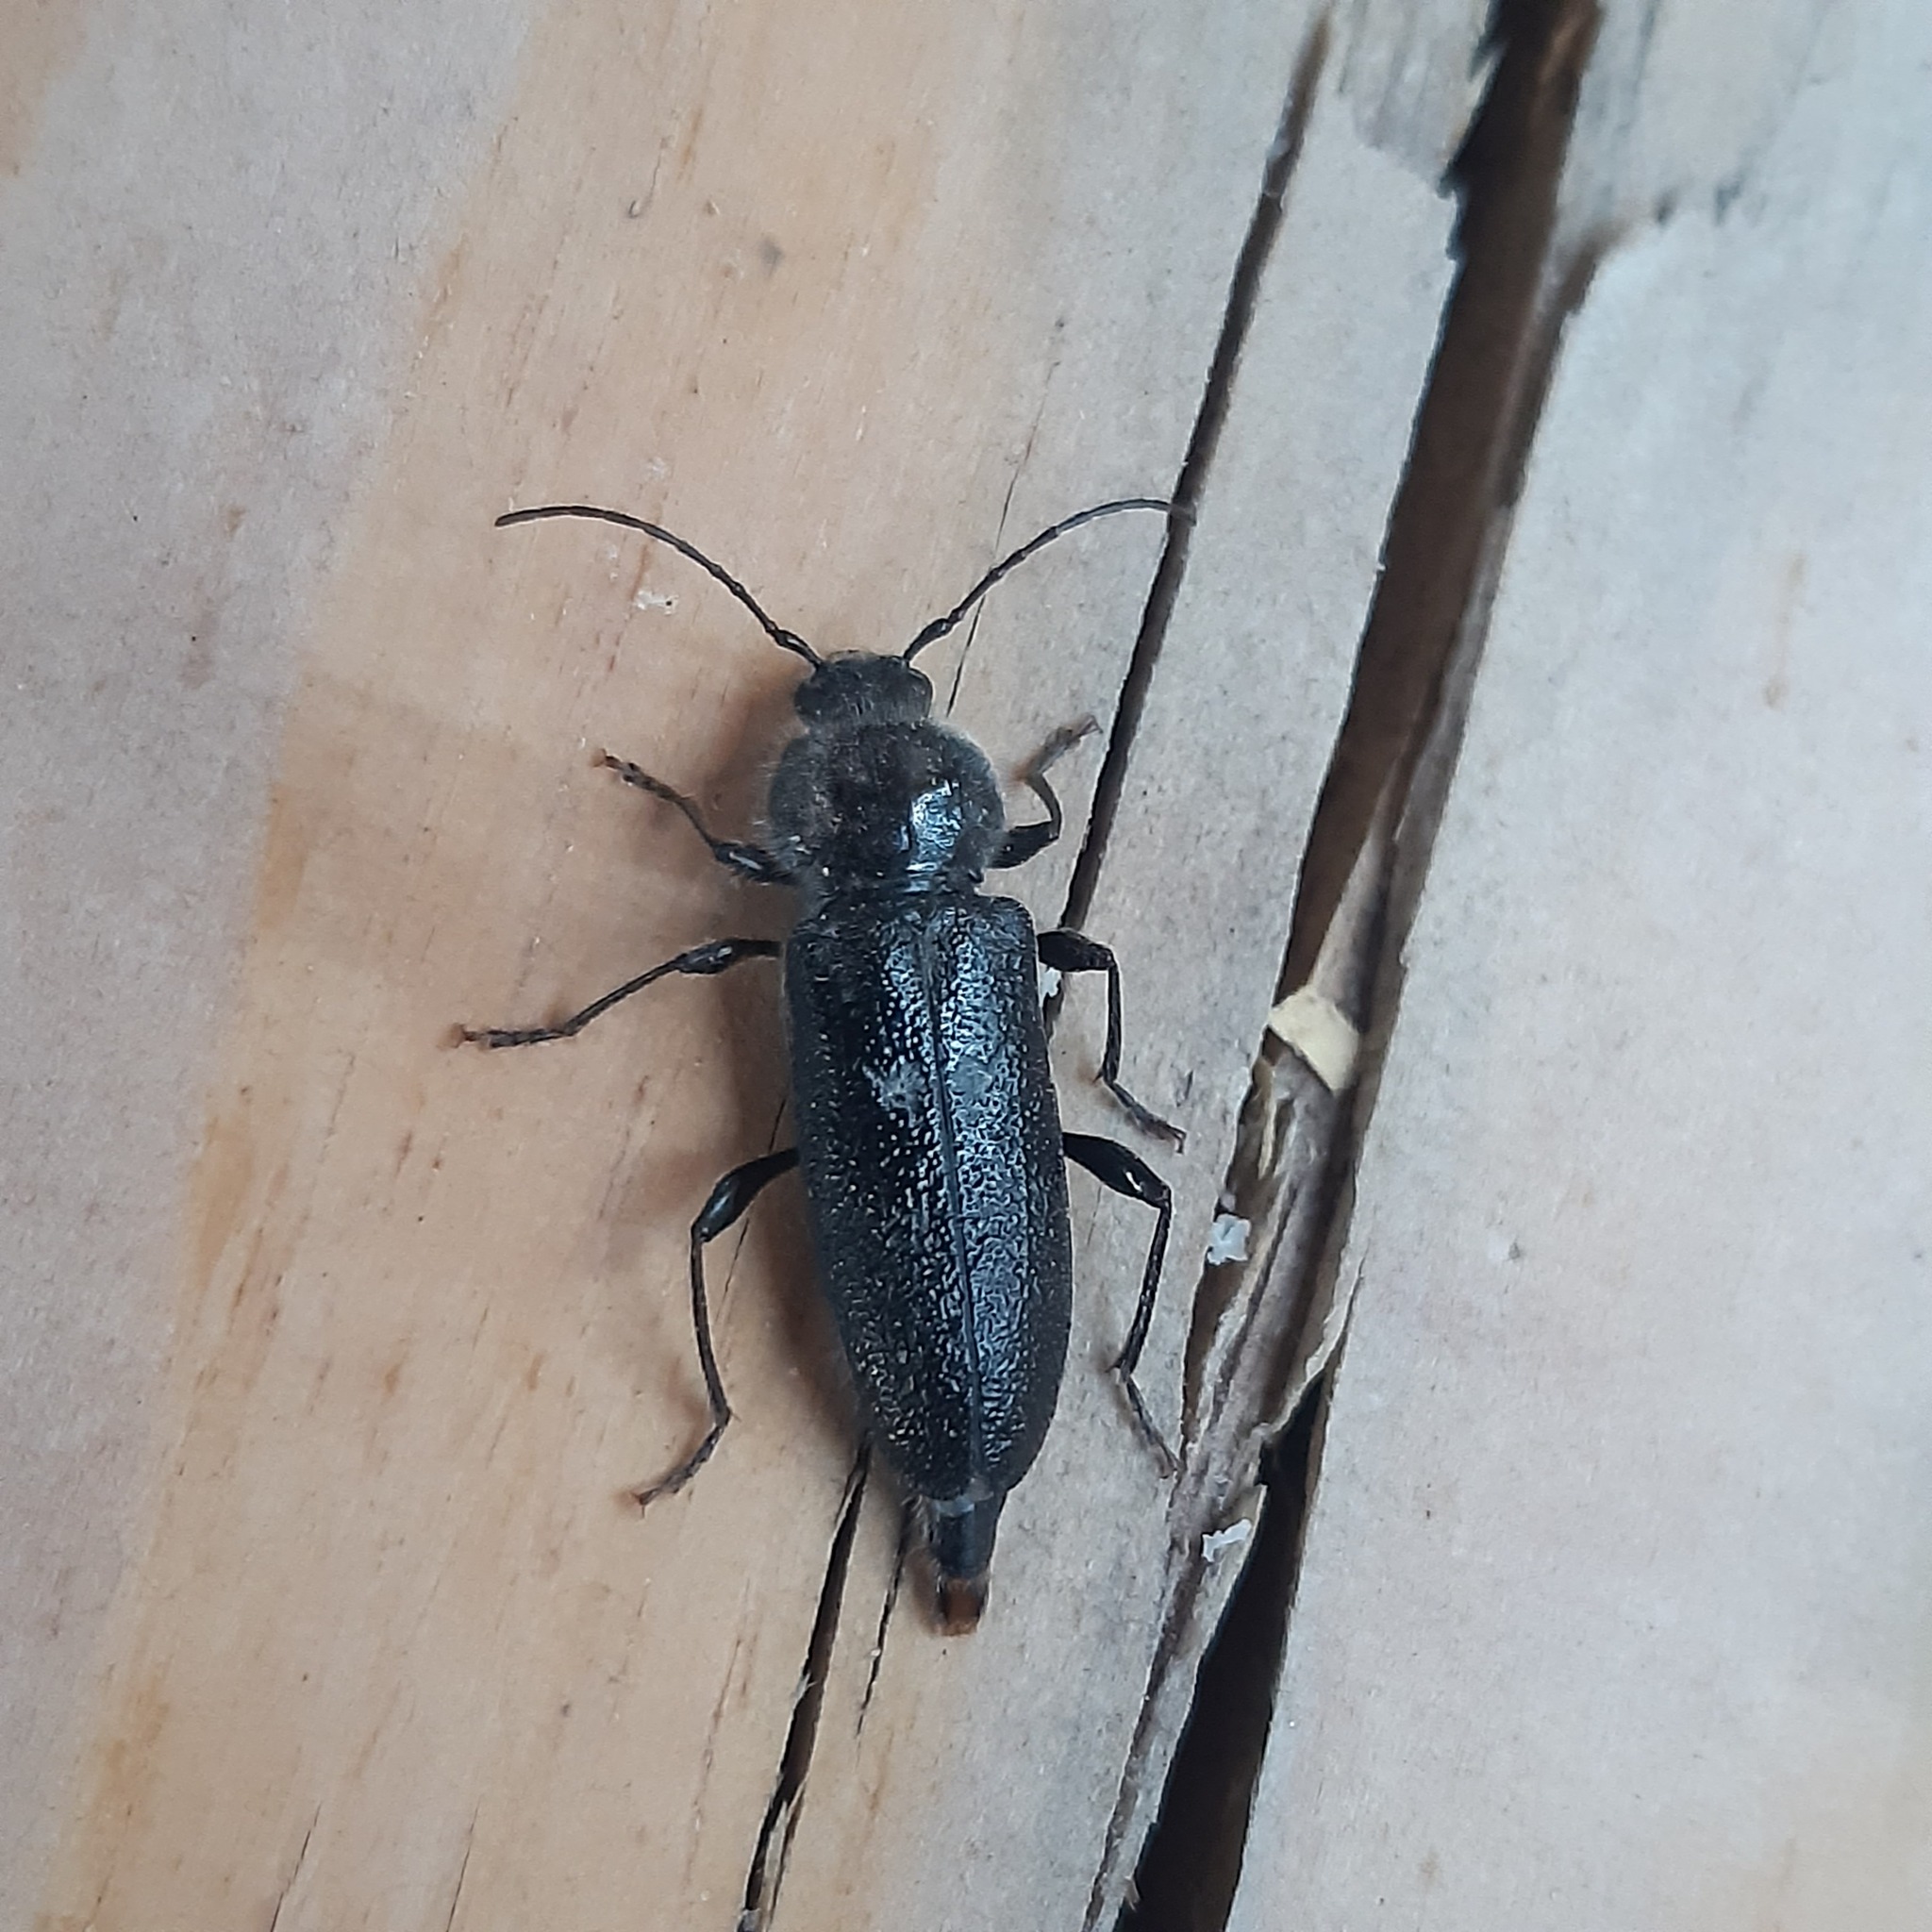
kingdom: Animalia
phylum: Arthropoda
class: Insecta
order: Coleoptera
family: Cerambycidae
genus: Hylotrupes
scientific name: Hylotrupes bajulus
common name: Old house borer
